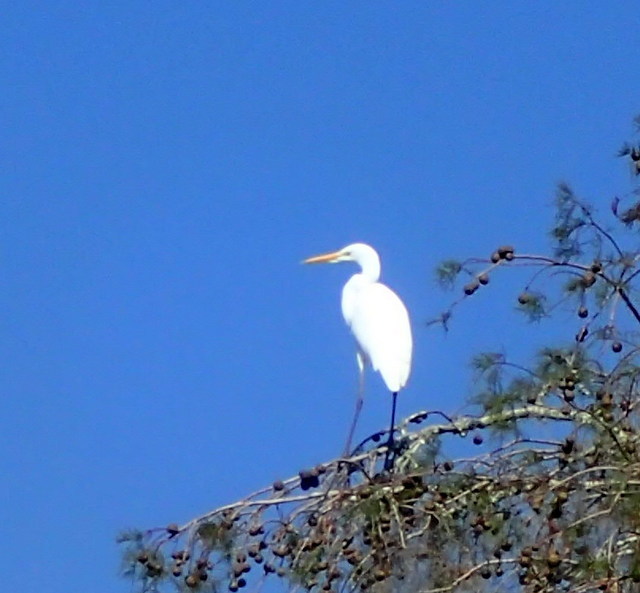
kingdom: Animalia
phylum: Chordata
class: Aves
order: Pelecaniformes
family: Ardeidae
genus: Ardea
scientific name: Ardea alba
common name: Great egret
